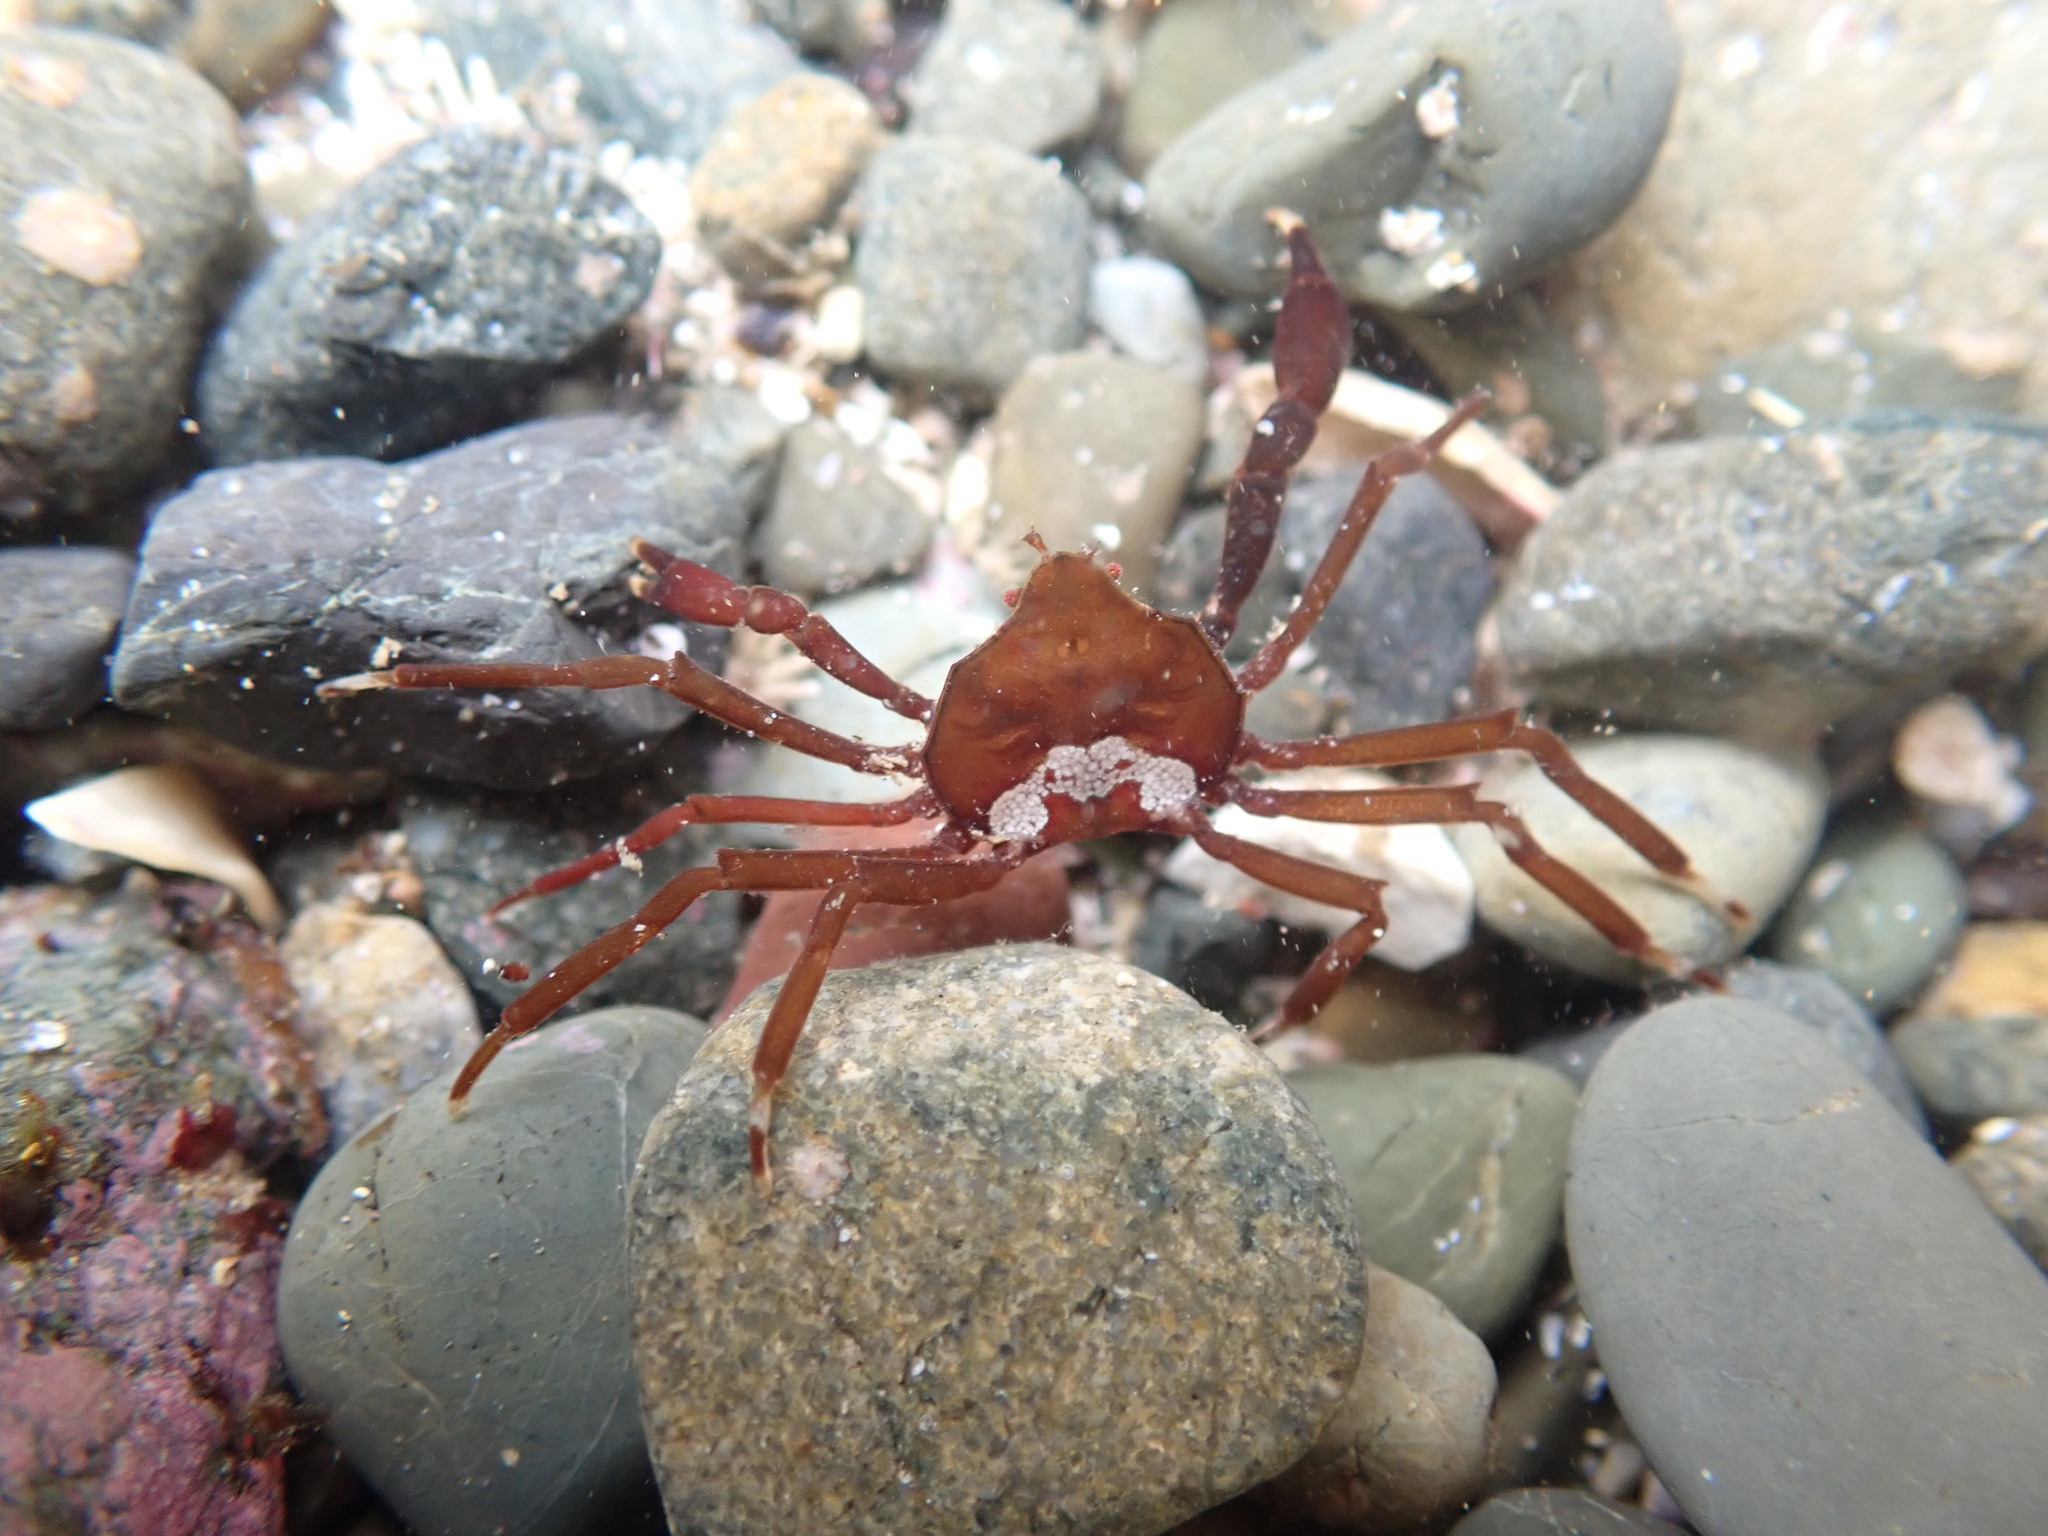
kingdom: Animalia
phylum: Arthropoda
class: Malacostraca
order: Decapoda
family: Hymenosomatidae
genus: Elamena
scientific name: Elamena producta
